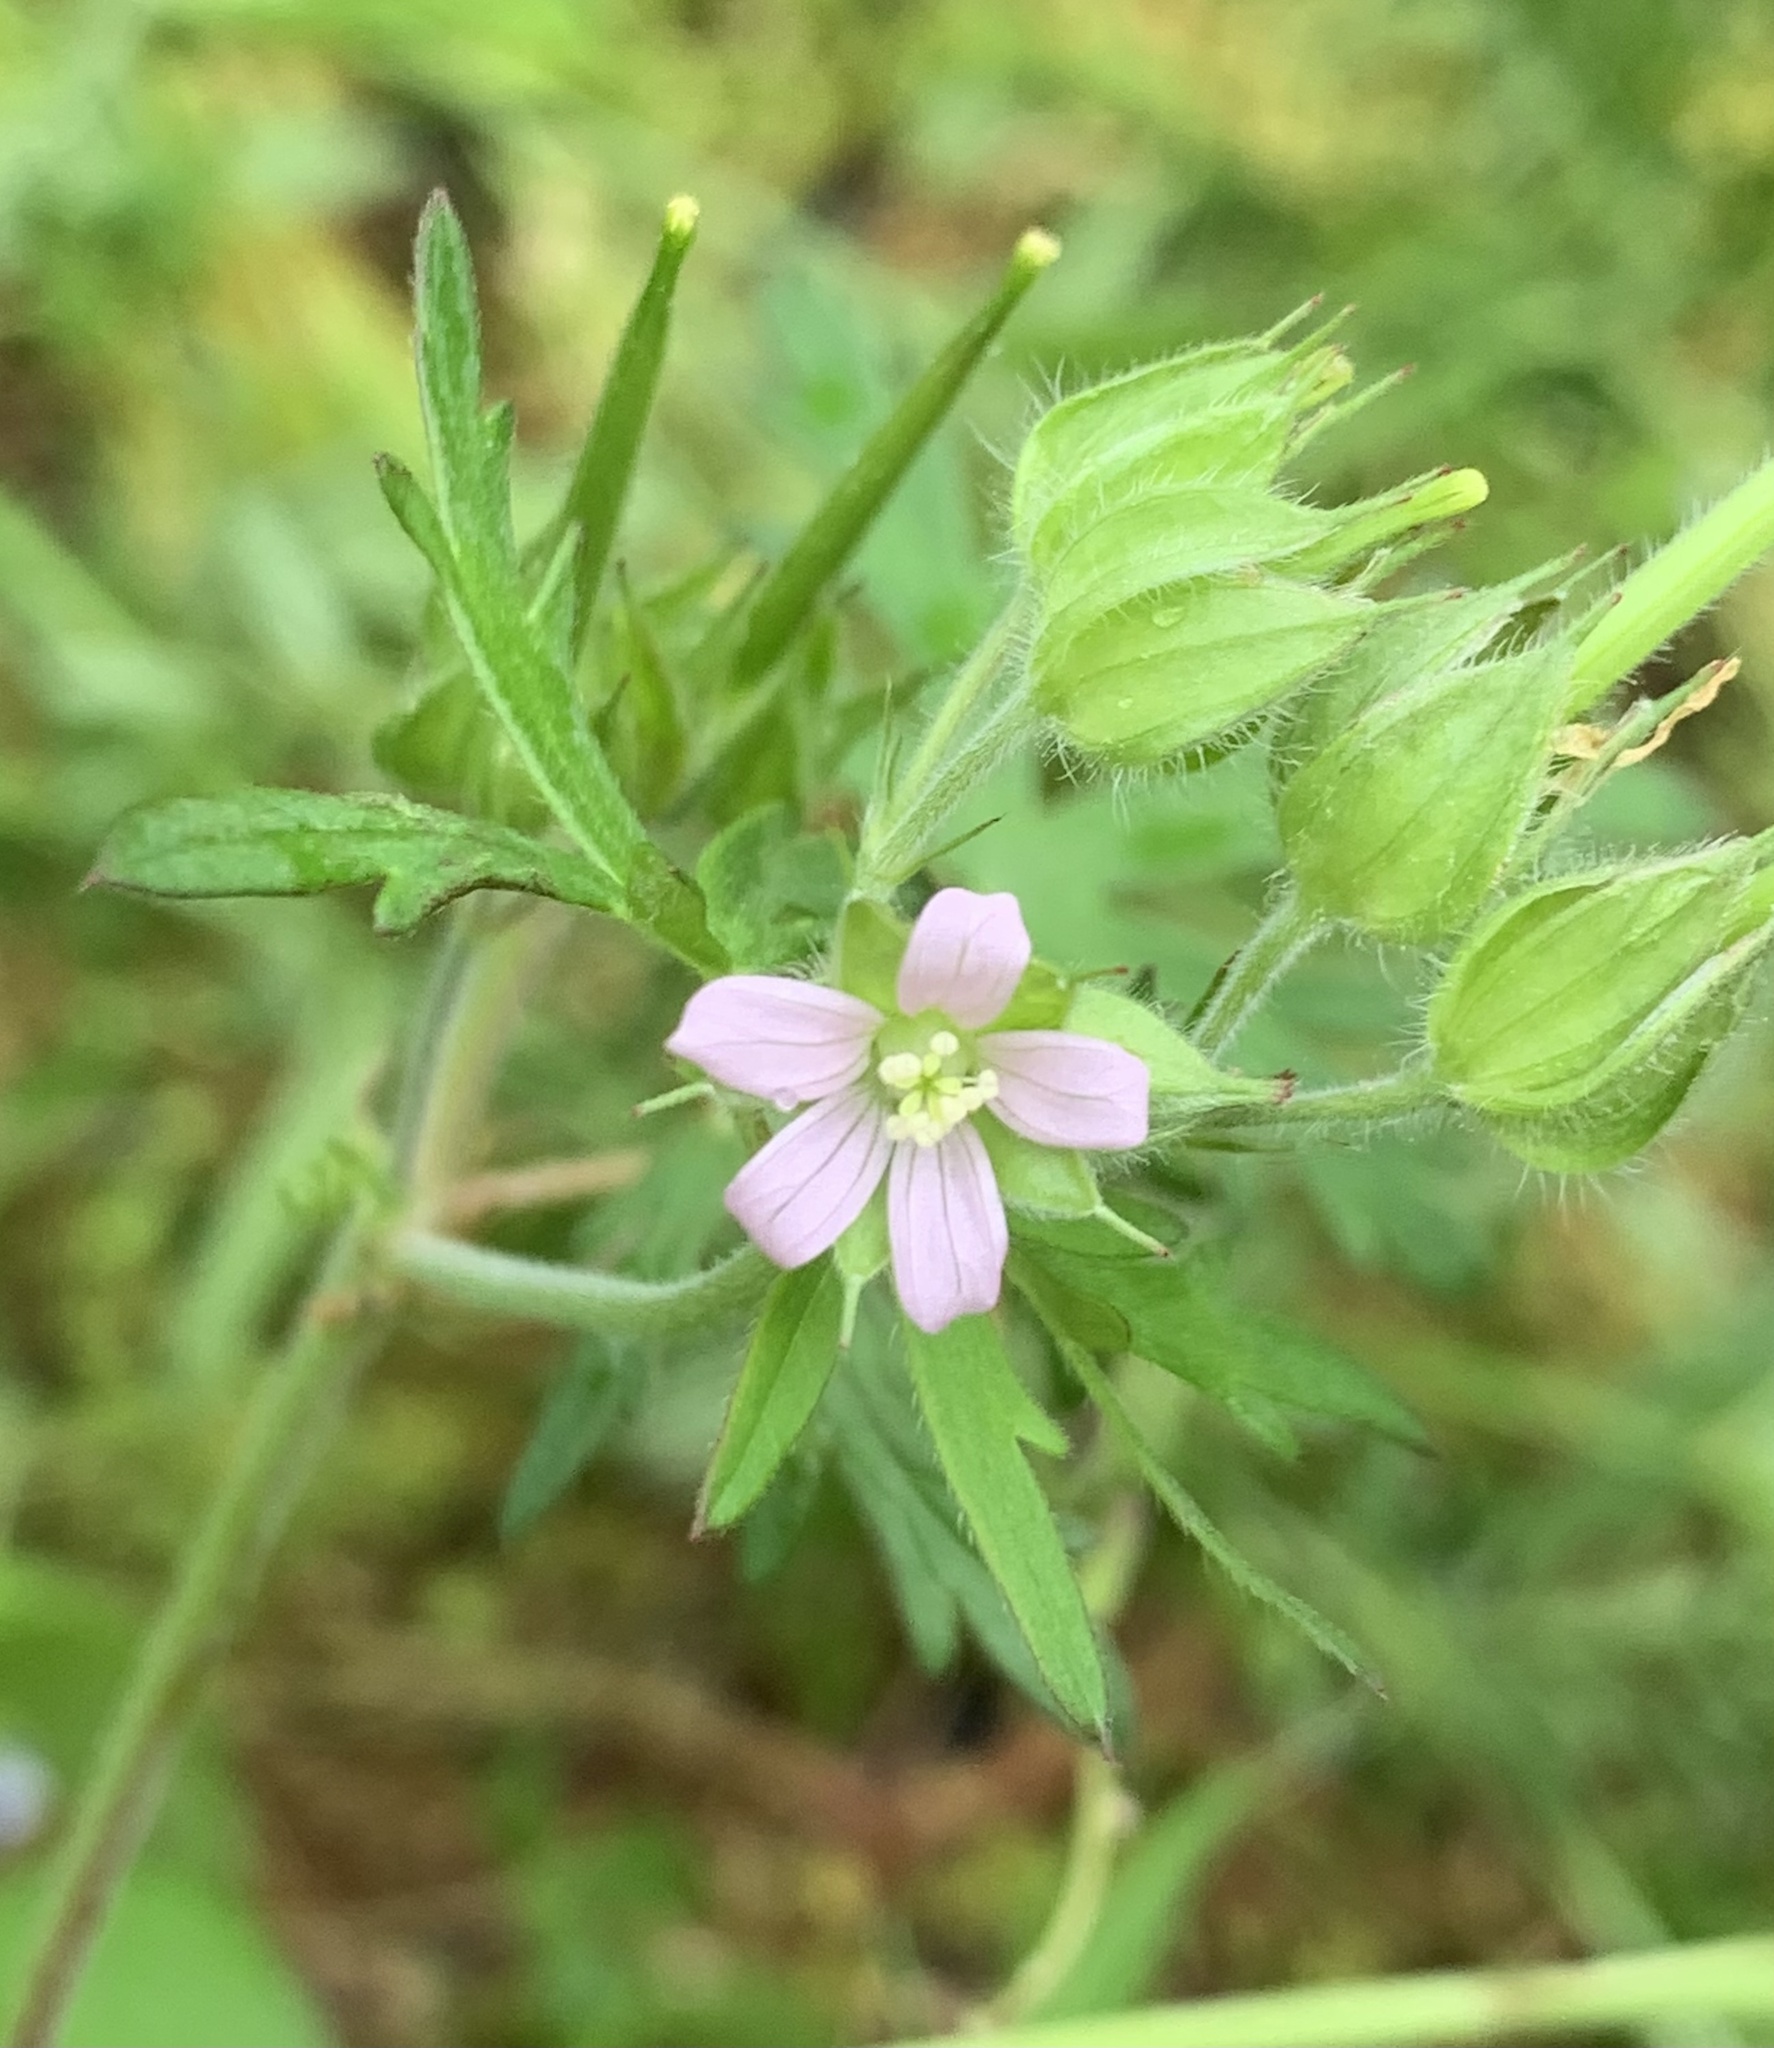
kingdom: Plantae
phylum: Tracheophyta
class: Magnoliopsida
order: Geraniales
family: Geraniaceae
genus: Geranium
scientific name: Geranium carolinianum
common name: Carolina crane's-bill
